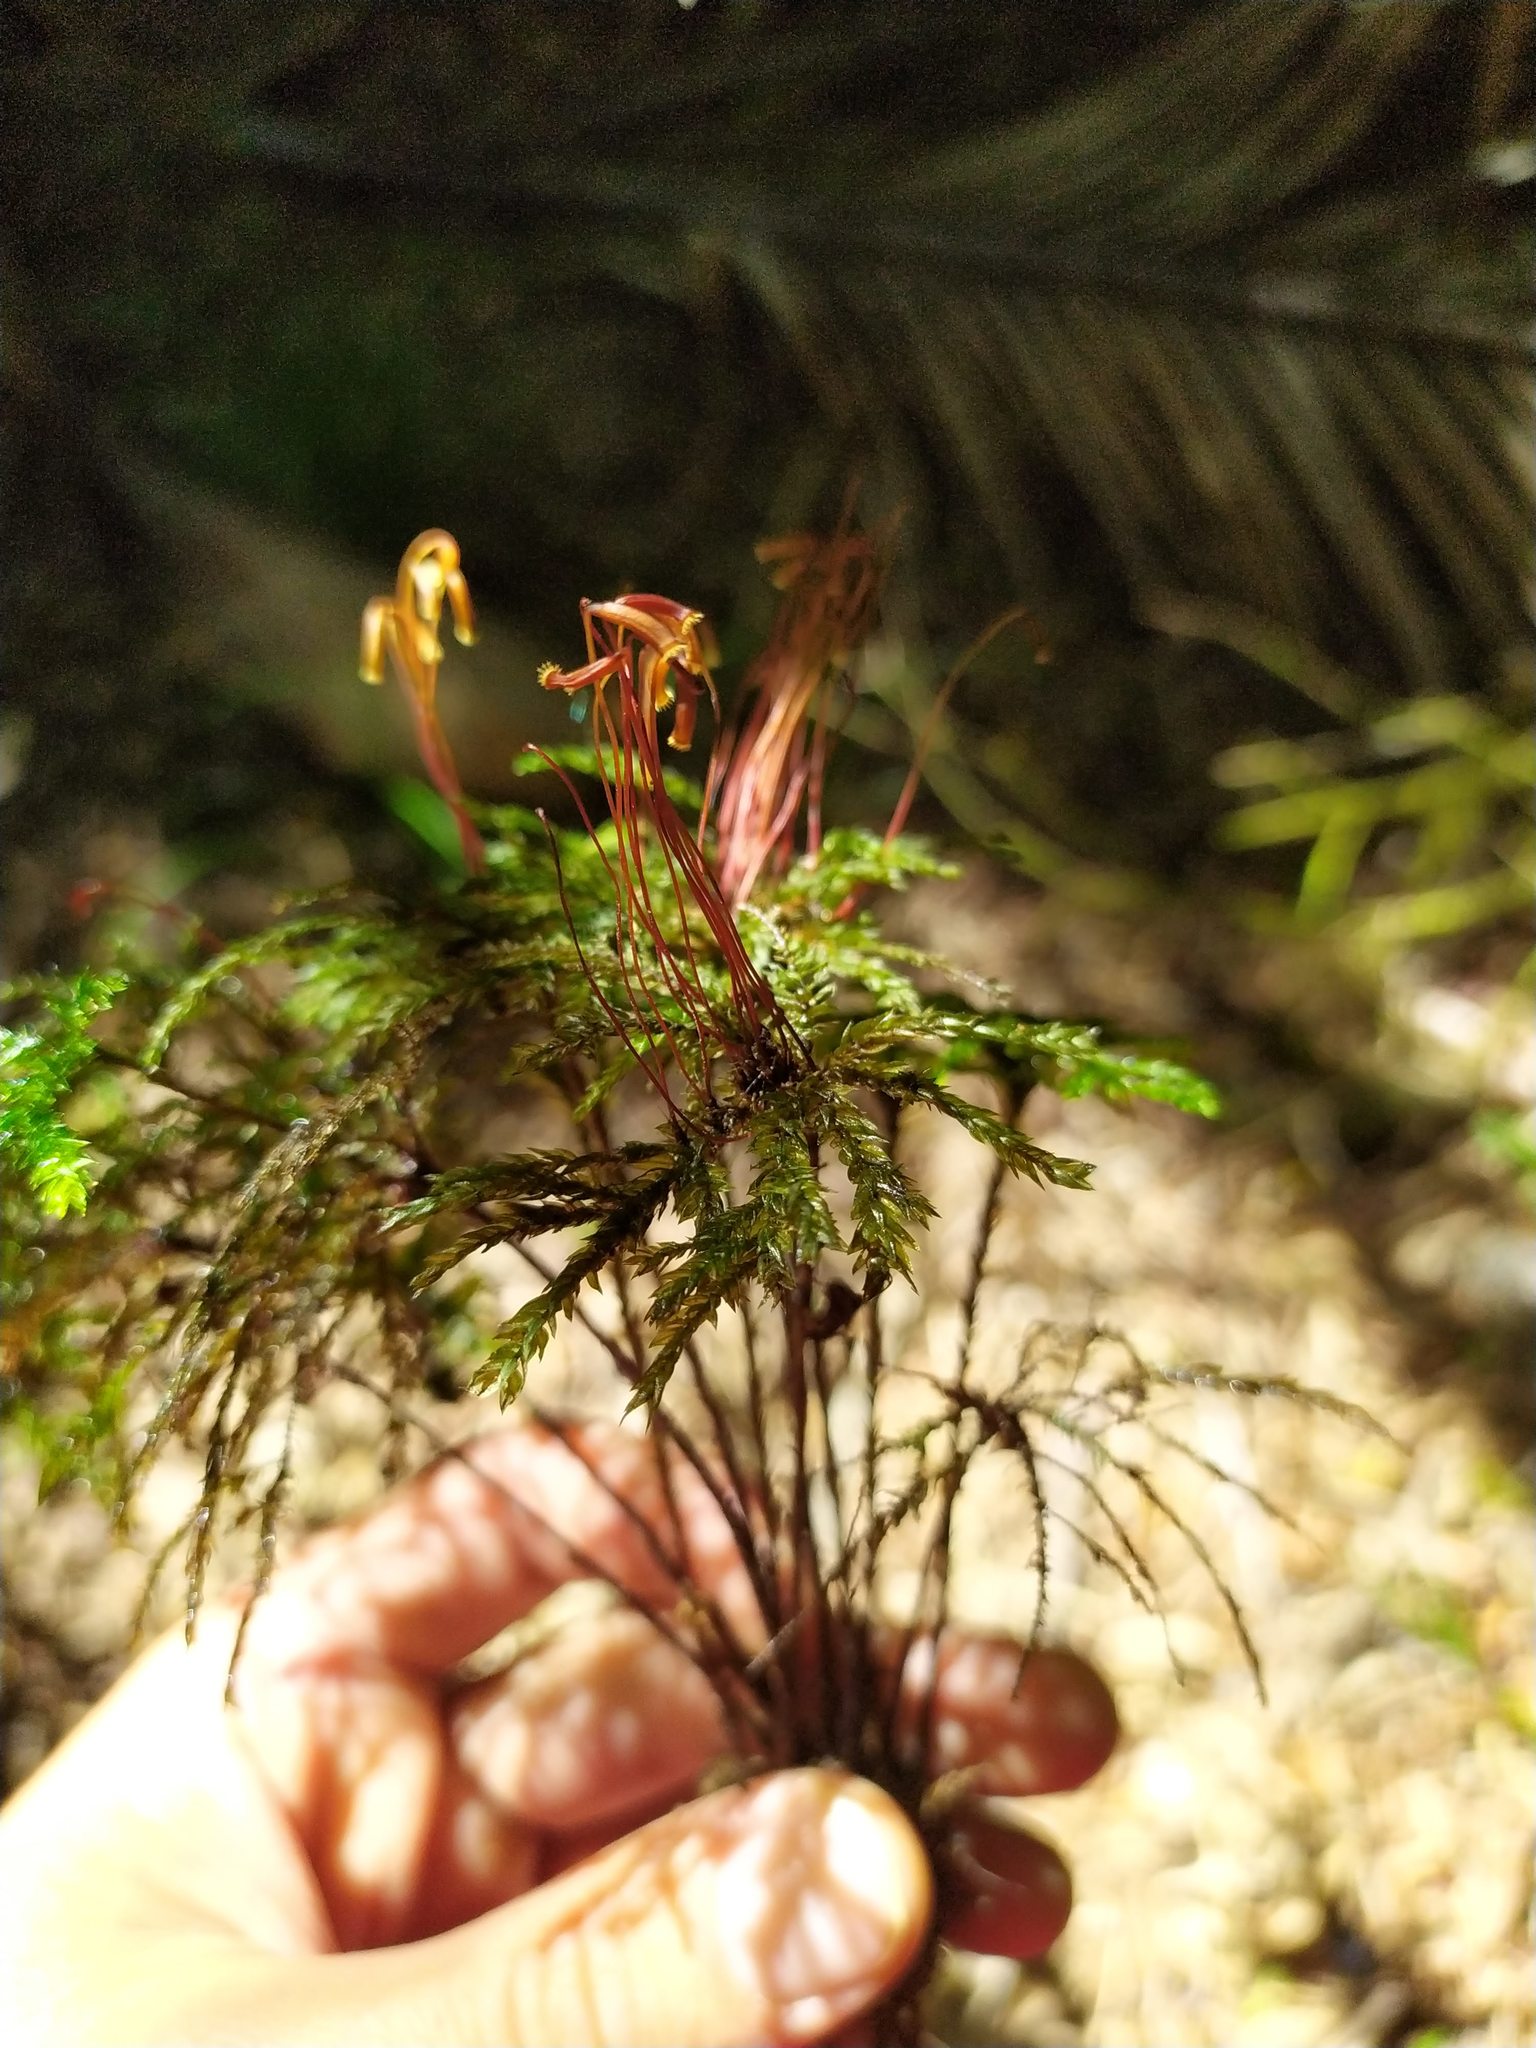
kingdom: Plantae
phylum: Bryophyta
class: Bryopsida
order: Hypnodendrales
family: Spiridentaceae
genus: Hypnodendron
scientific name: Hypnodendron marginatum
